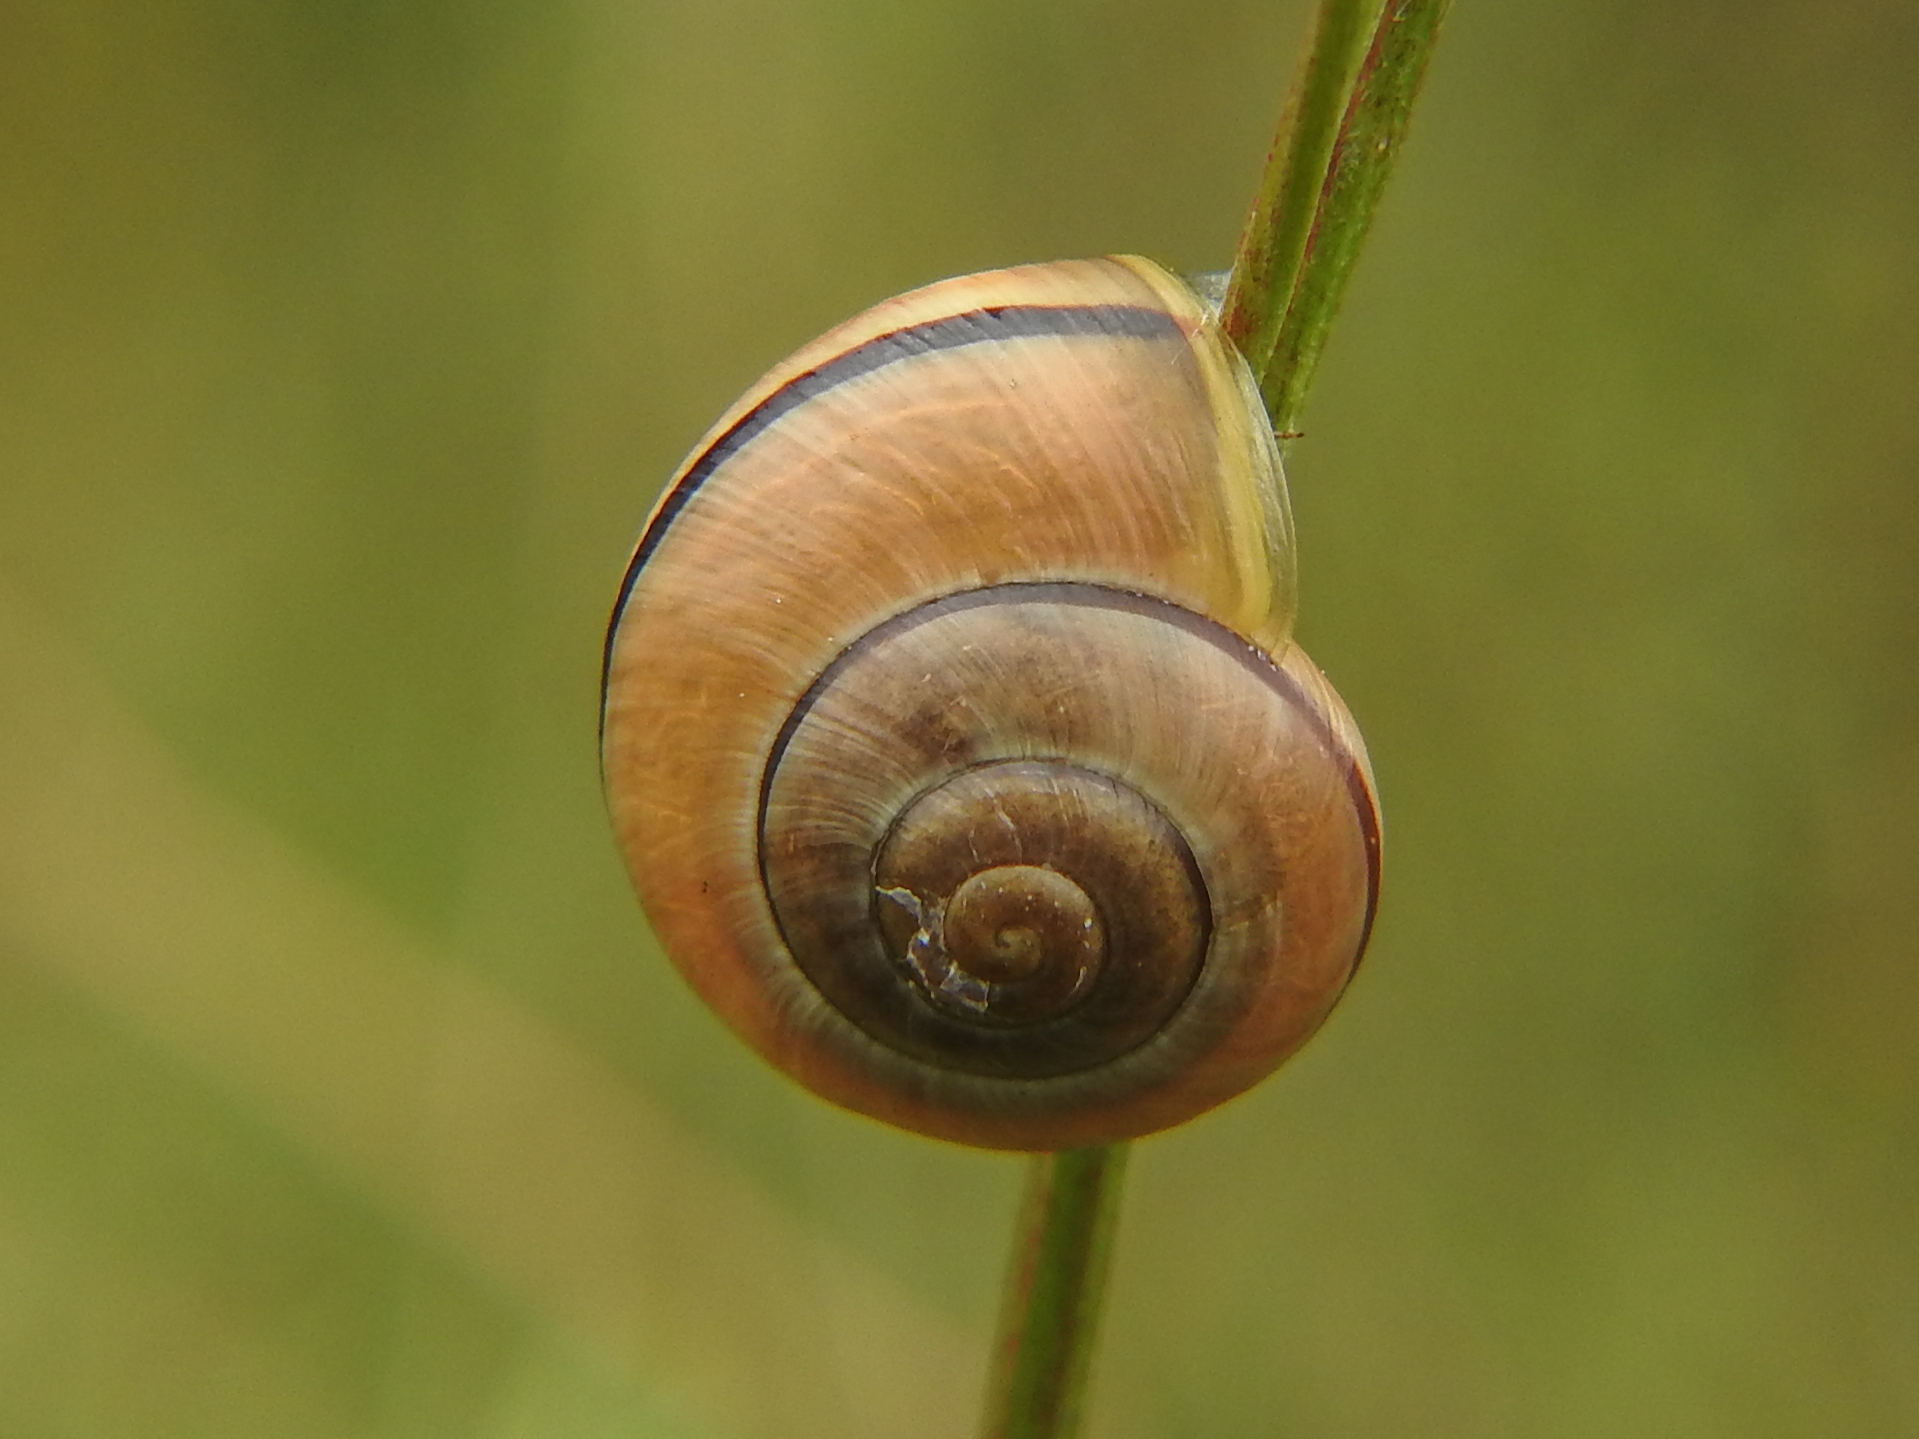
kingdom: Animalia
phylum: Mollusca
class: Gastropoda
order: Stylommatophora
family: Helicidae
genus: Cepaea
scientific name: Cepaea nemoralis
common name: Grovesnail
